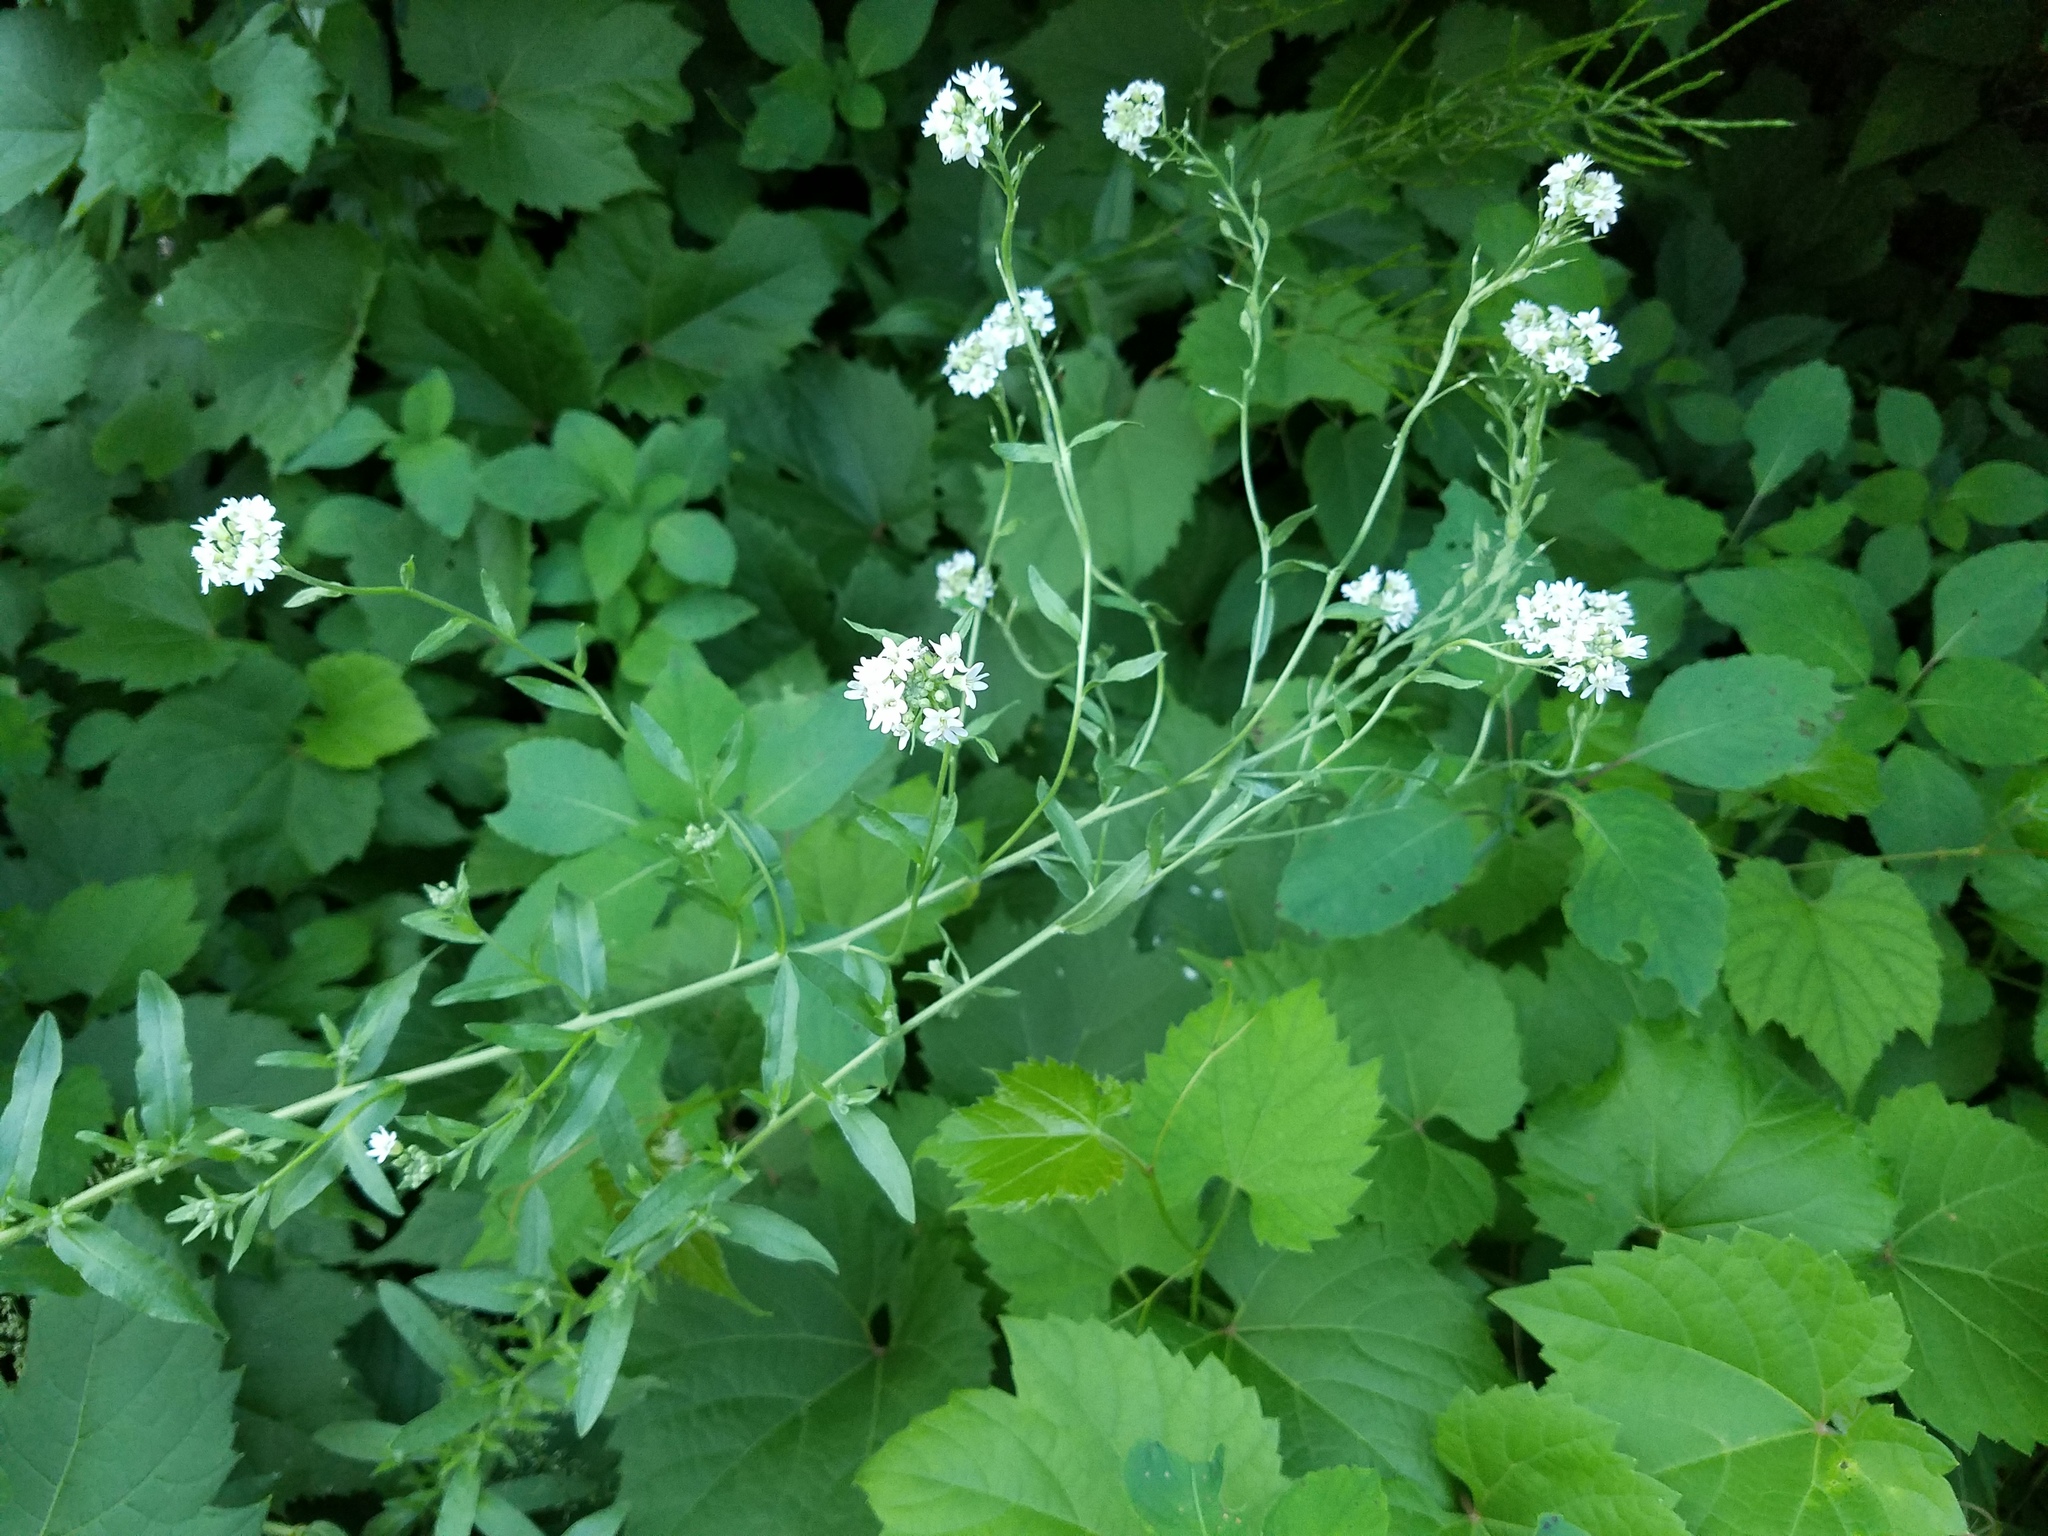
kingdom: Plantae
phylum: Tracheophyta
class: Magnoliopsida
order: Brassicales
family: Brassicaceae
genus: Berteroa
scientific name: Berteroa incana
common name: Hoary alison
